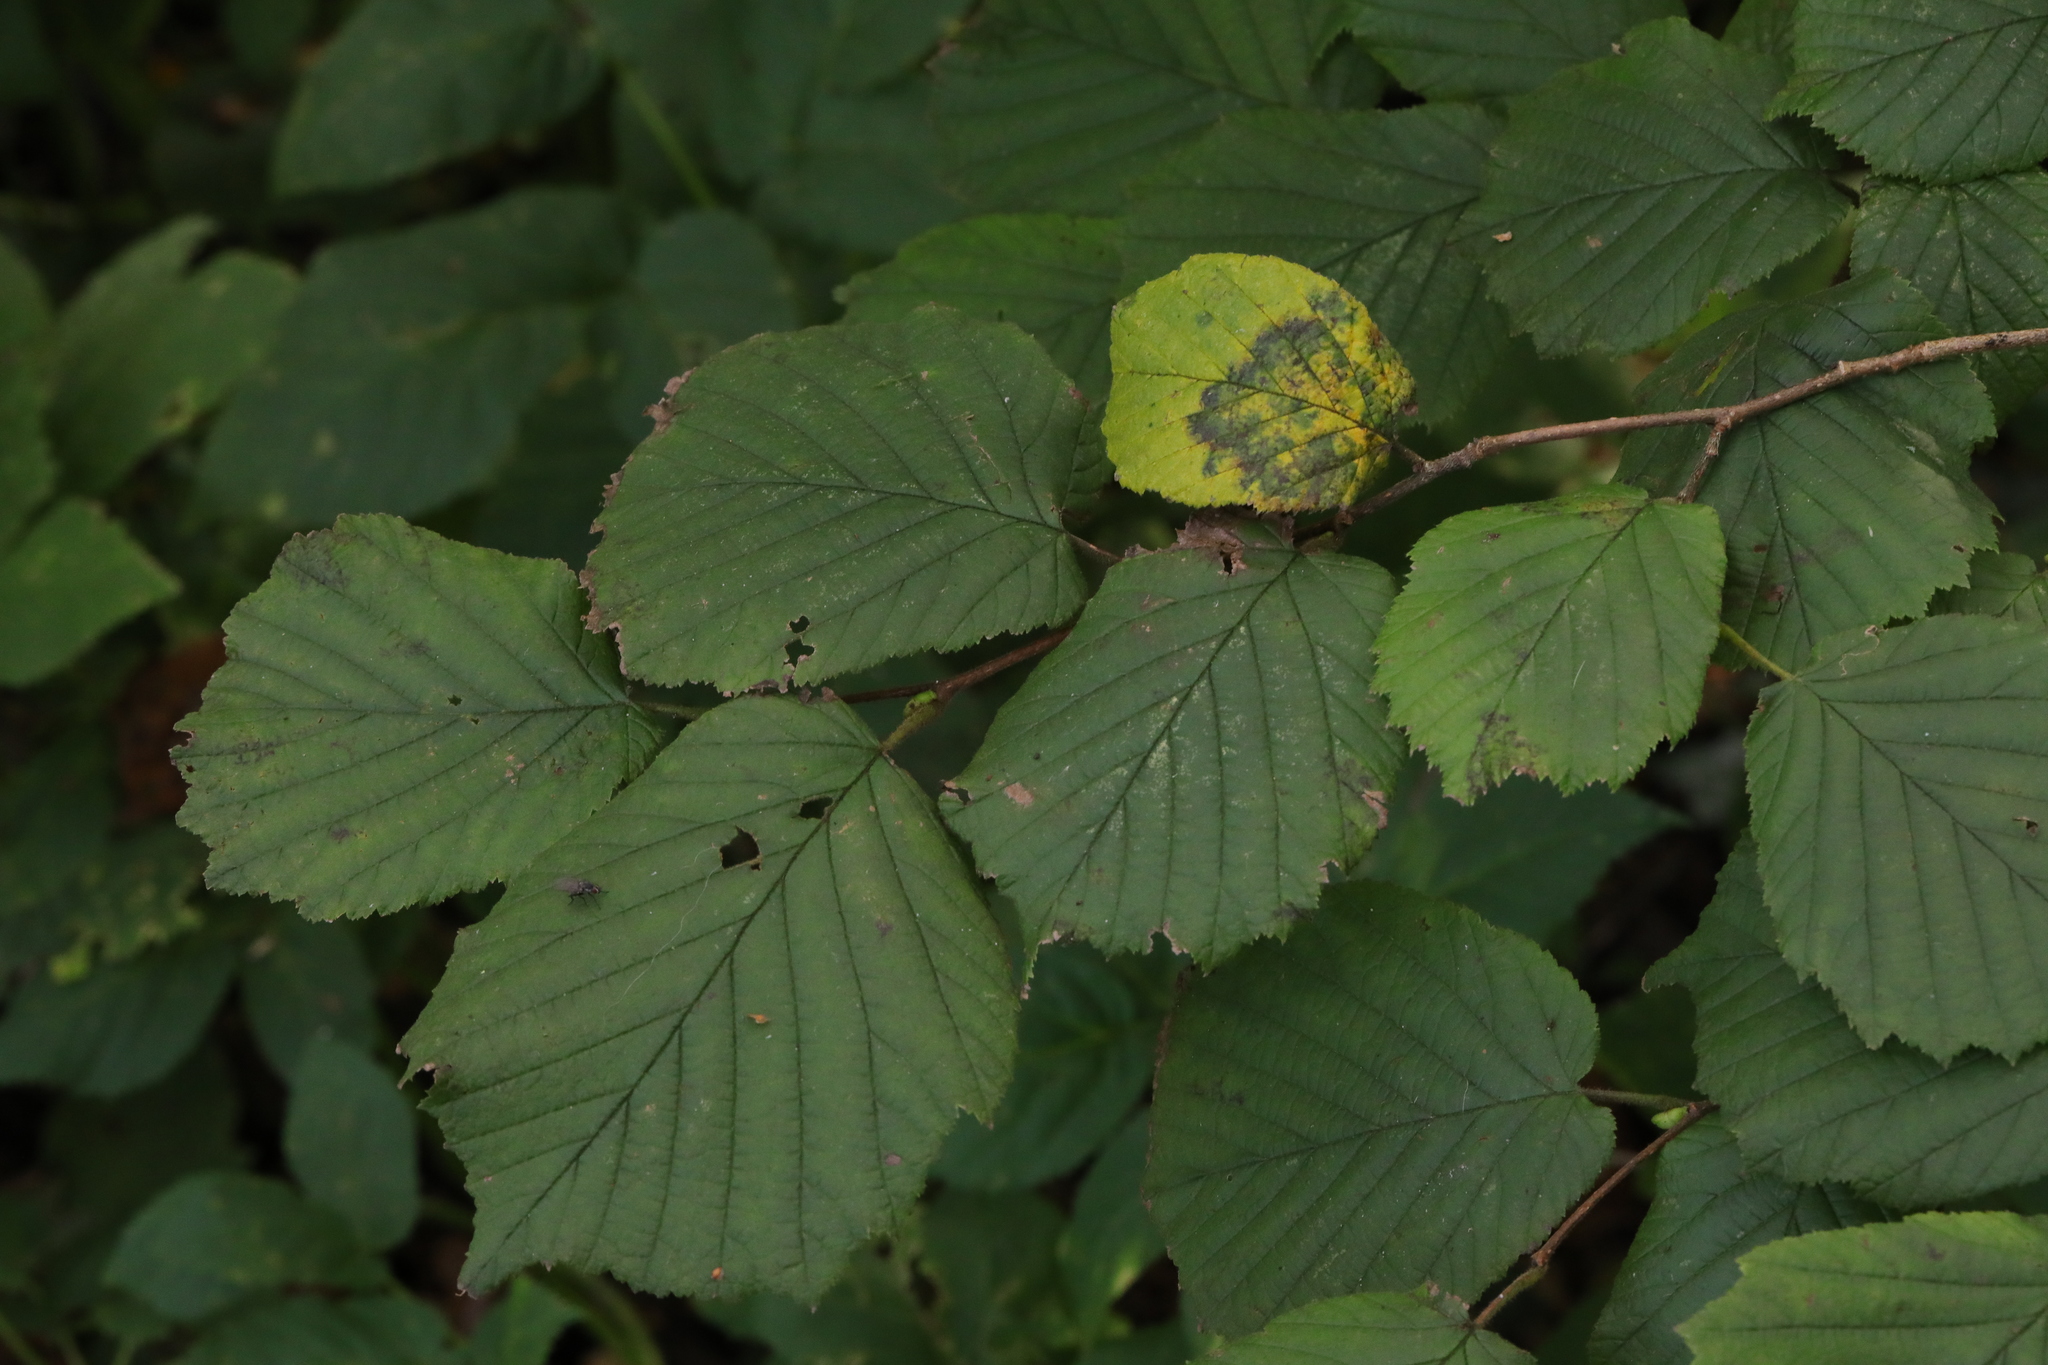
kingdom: Plantae
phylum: Tracheophyta
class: Magnoliopsida
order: Fagales
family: Betulaceae
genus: Corylus
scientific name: Corylus avellana
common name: European hazel
